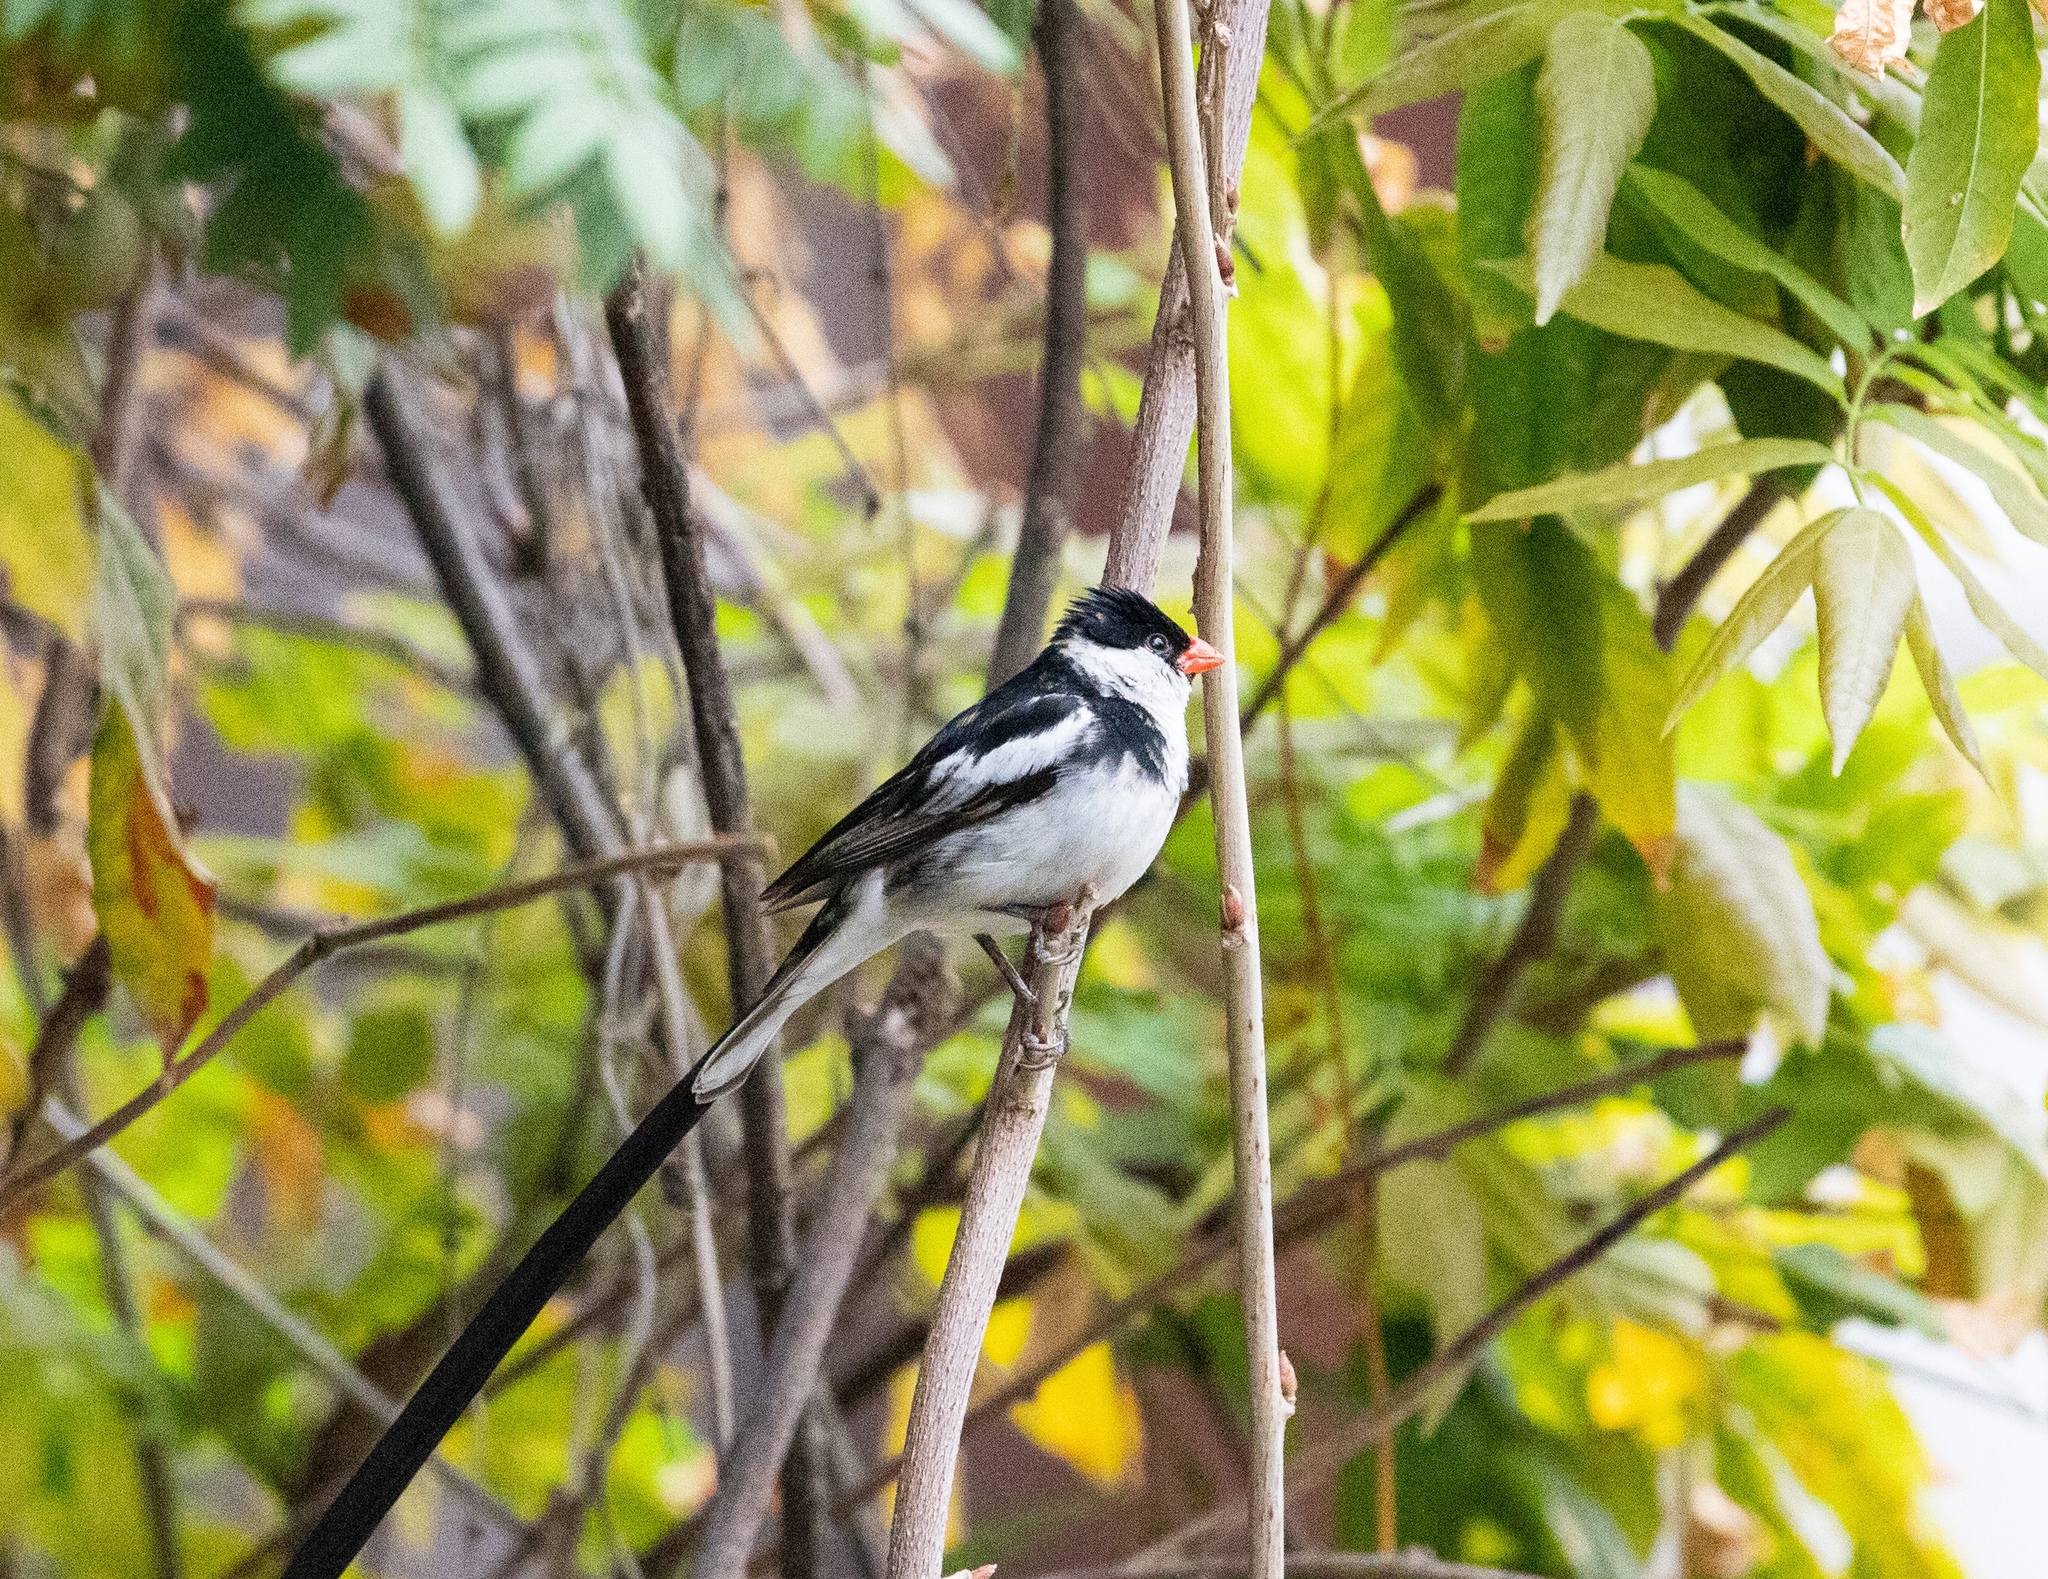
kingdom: Animalia
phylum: Chordata
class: Aves
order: Passeriformes
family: Viduidae
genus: Vidua
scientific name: Vidua macroura
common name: Pin-tailed whydah
